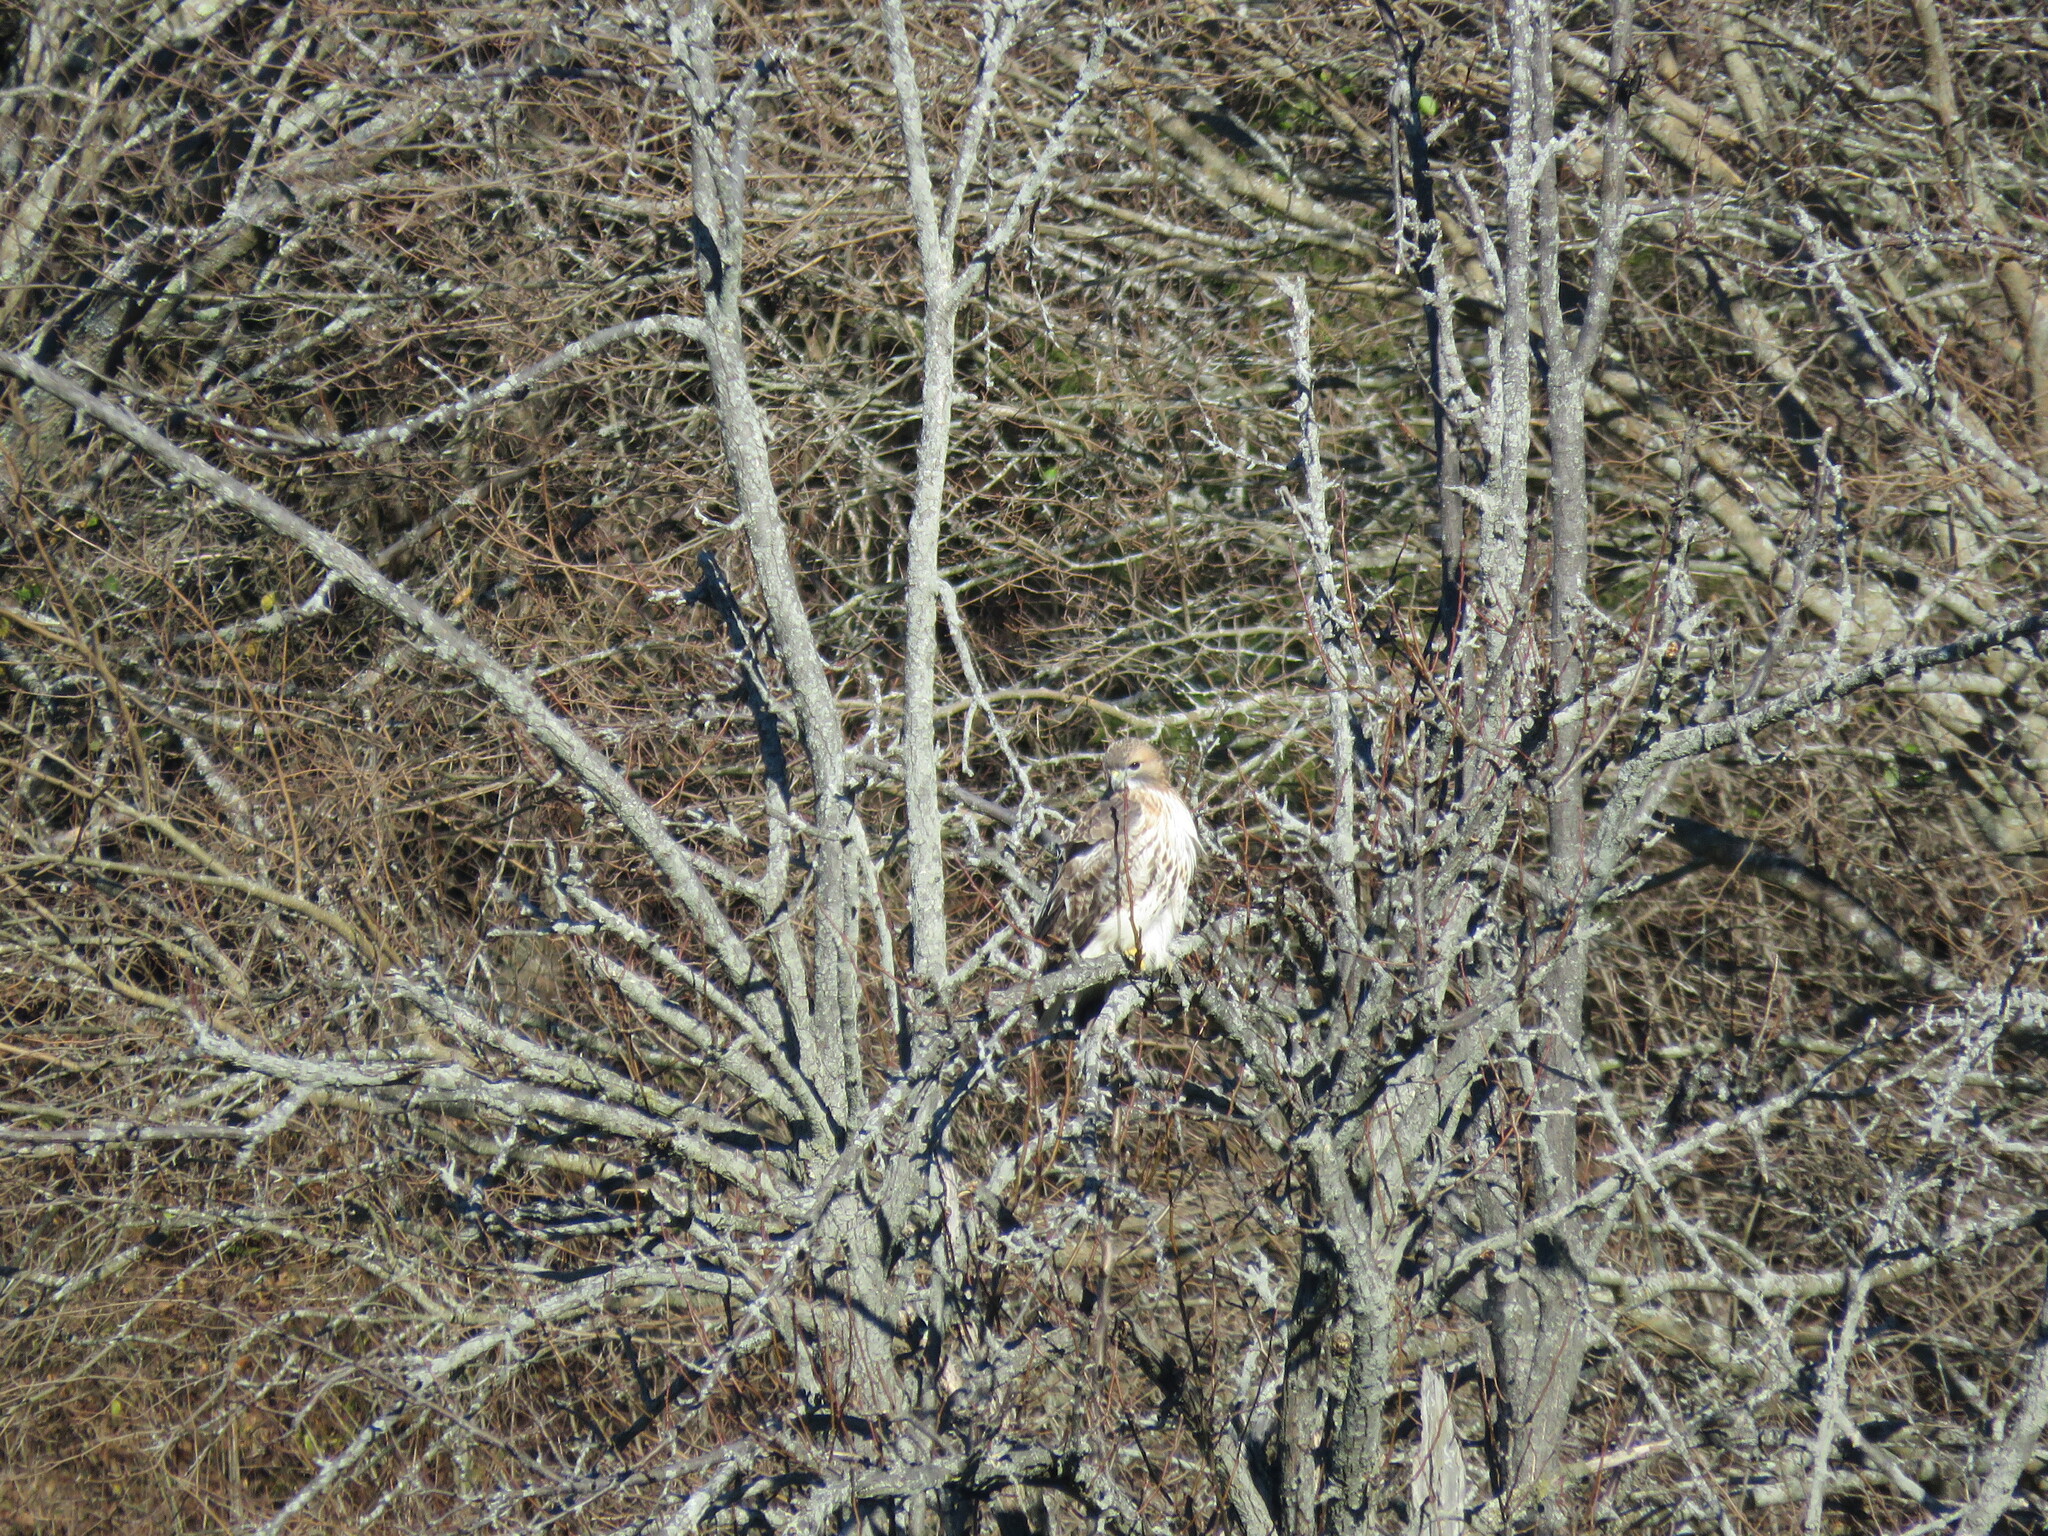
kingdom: Animalia
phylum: Chordata
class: Aves
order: Accipitriformes
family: Accipitridae
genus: Buteo
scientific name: Buteo jamaicensis
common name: Red-tailed hawk
